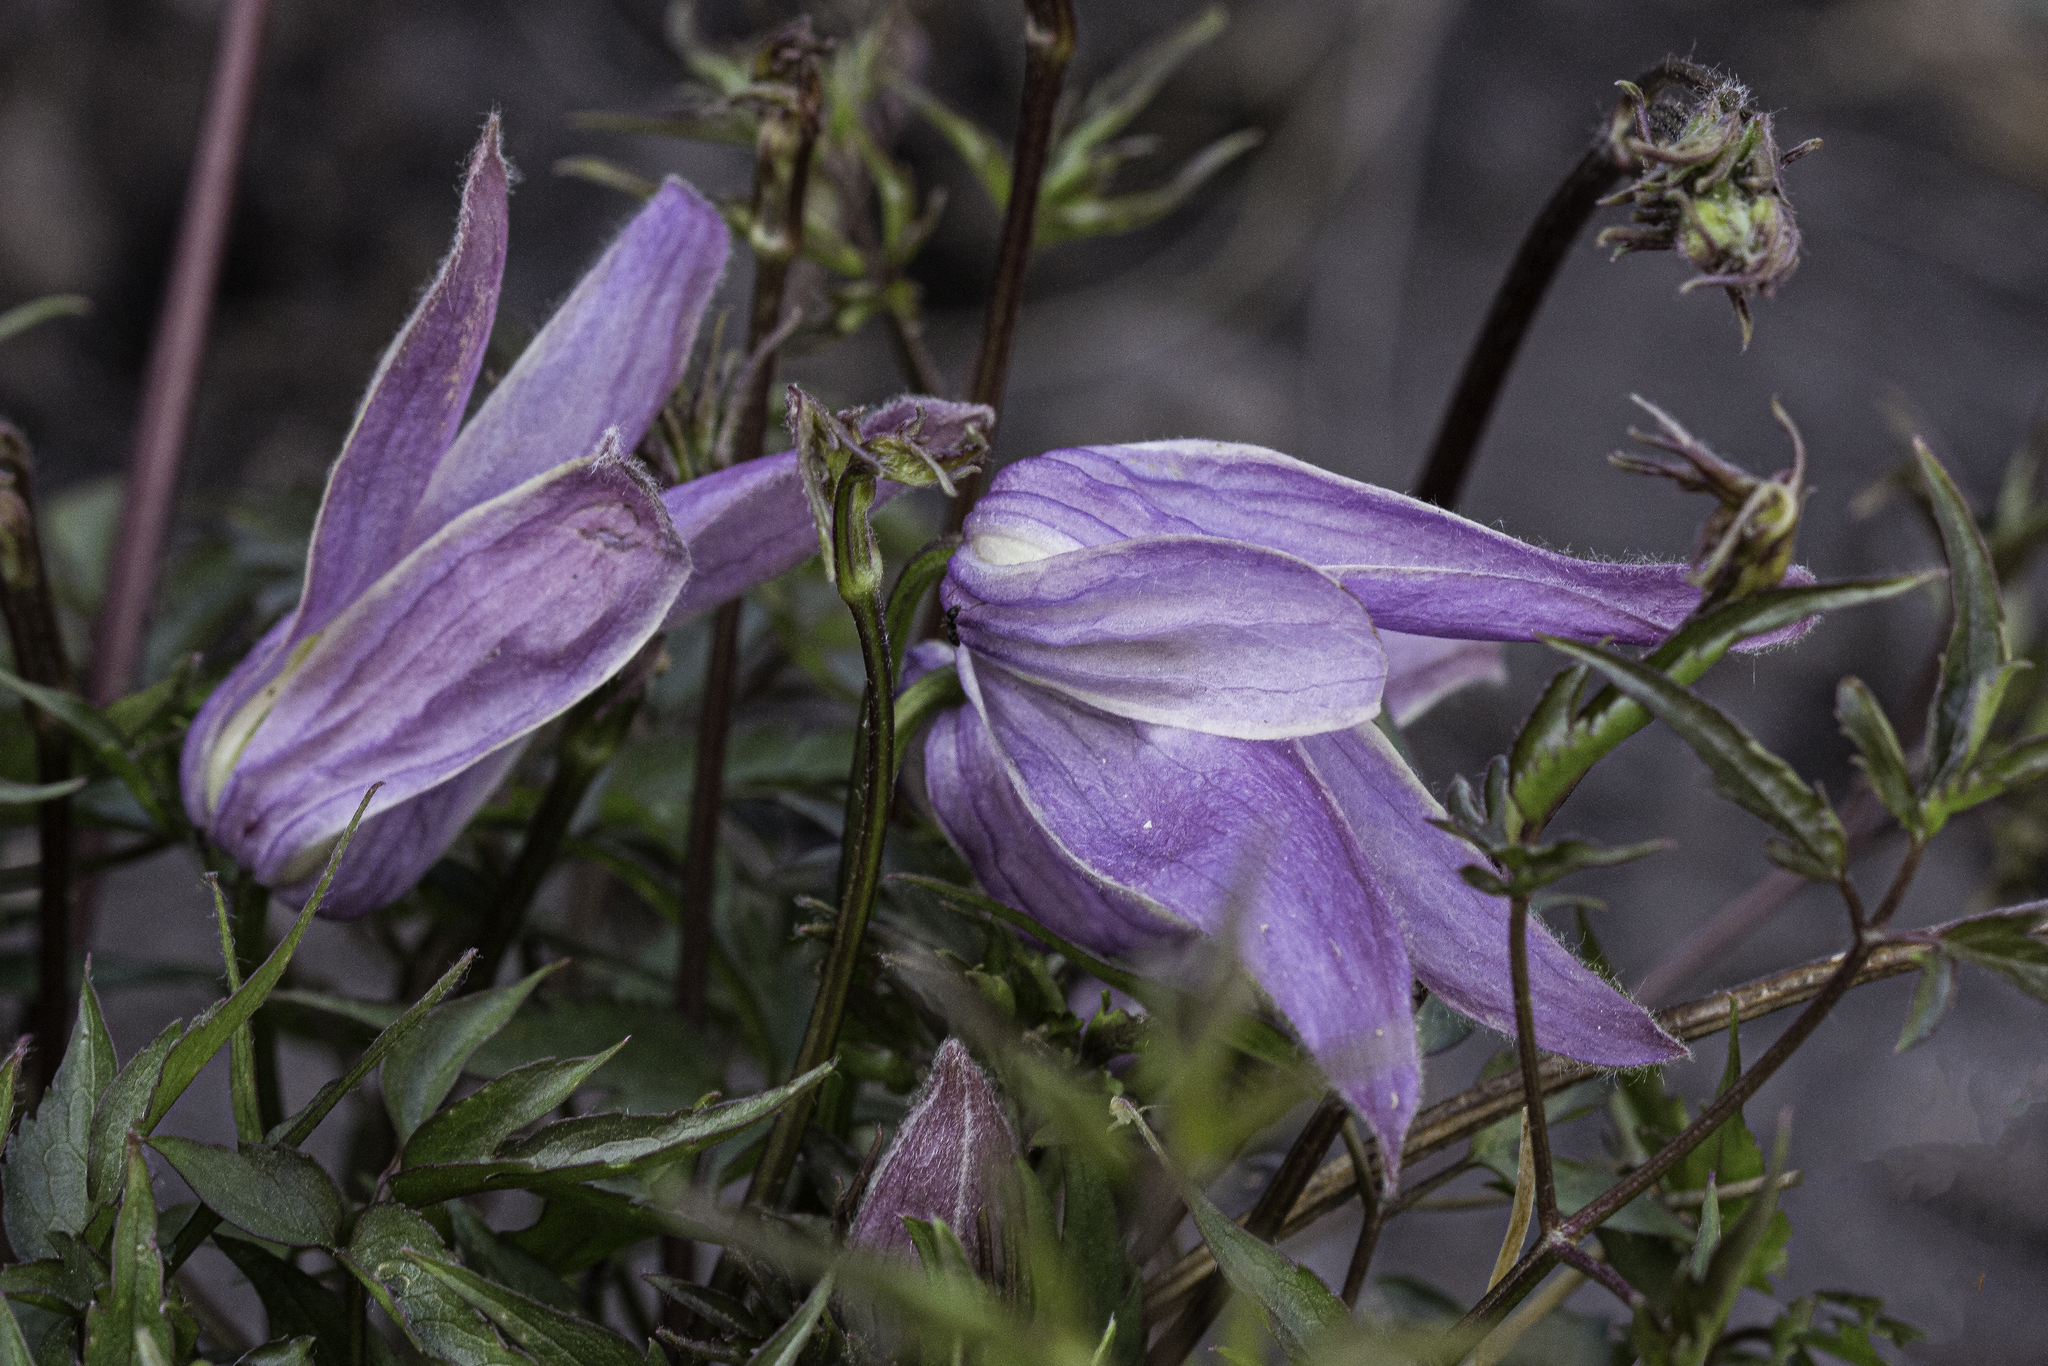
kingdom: Plantae
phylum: Tracheophyta
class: Magnoliopsida
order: Ranunculales
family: Ranunculaceae
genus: Clematis
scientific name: Clematis columbiana
